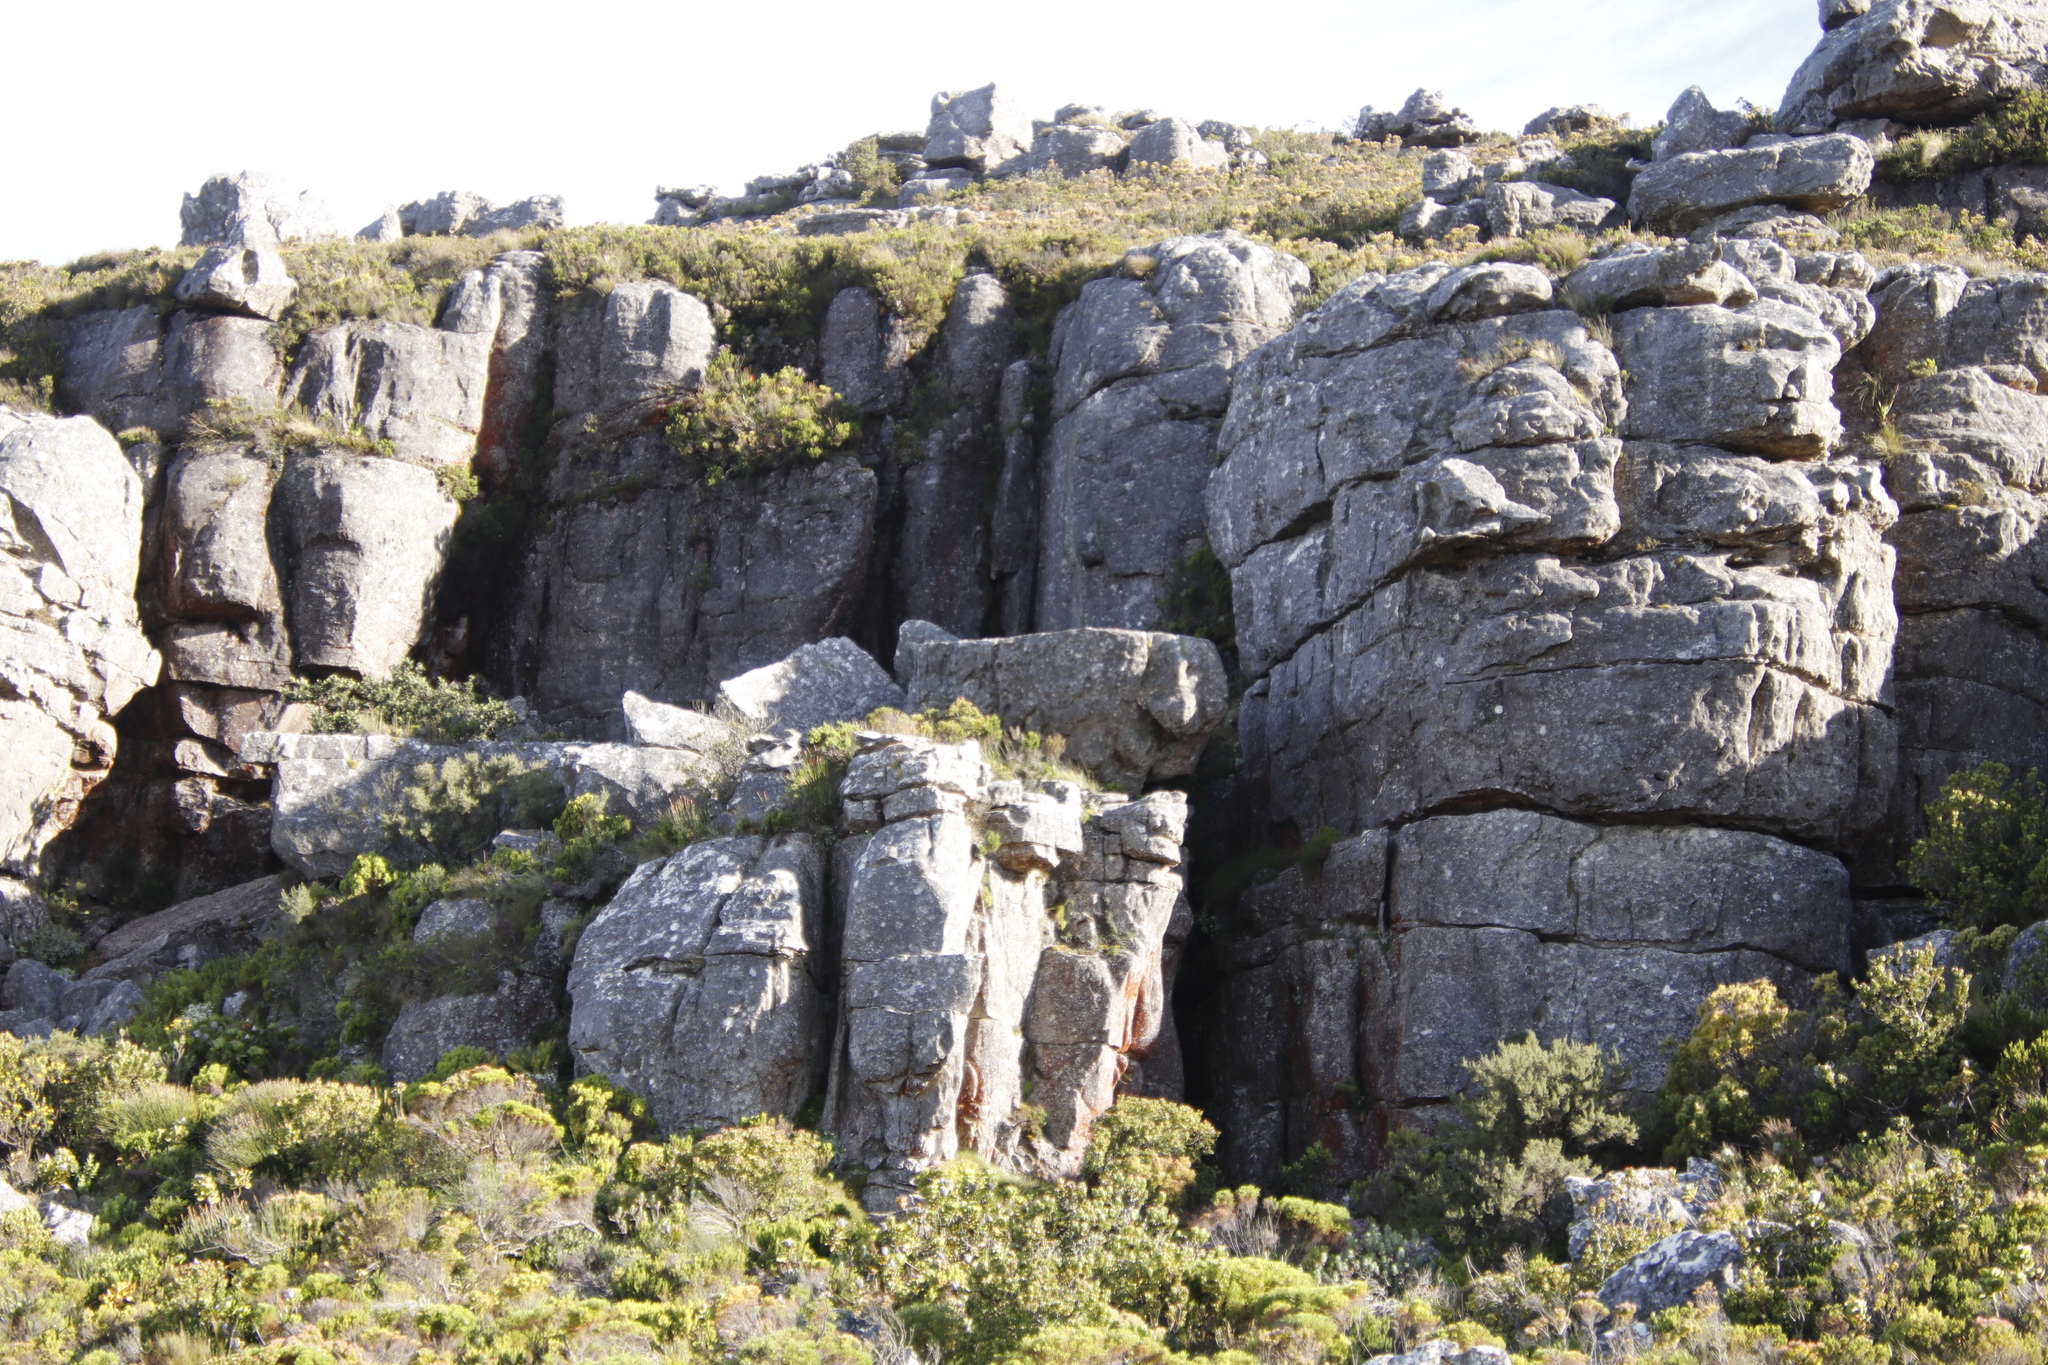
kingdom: Plantae
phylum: Tracheophyta
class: Magnoliopsida
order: Ericales
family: Ericaceae
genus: Erica
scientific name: Erica caterviflora
